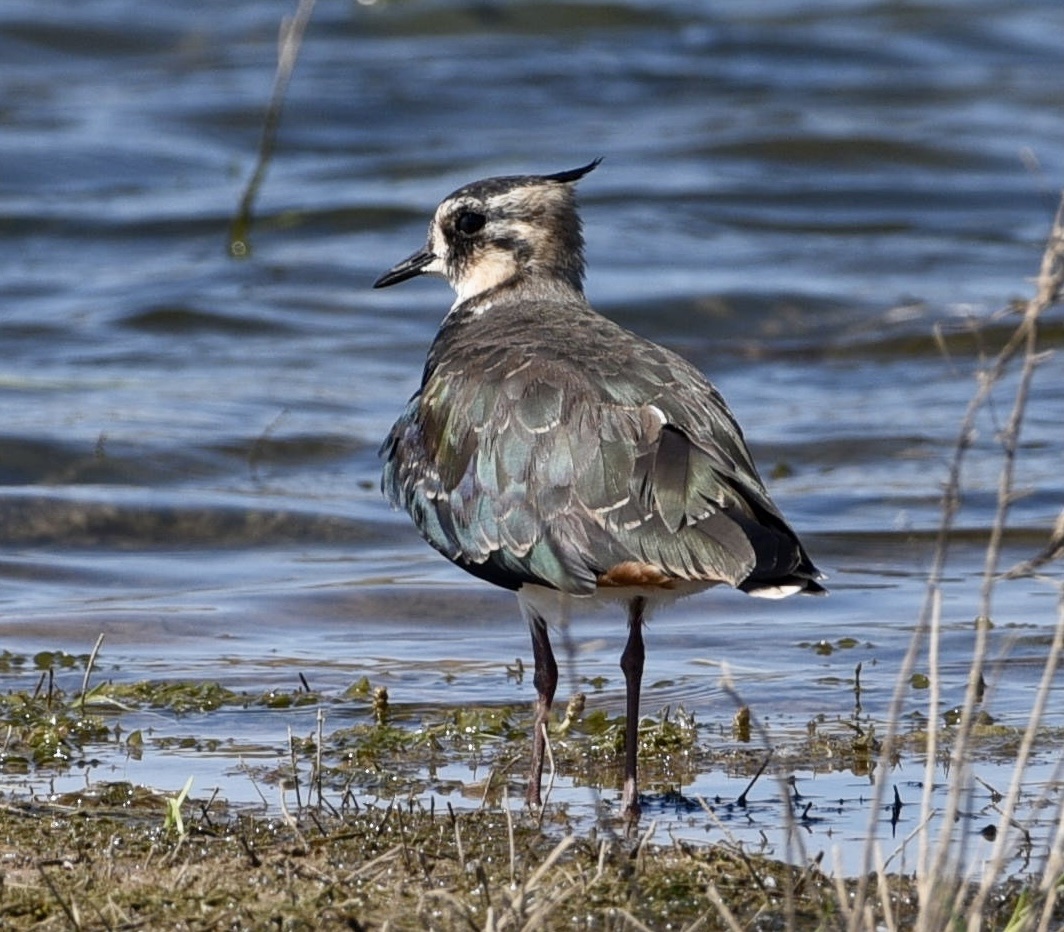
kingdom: Animalia
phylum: Chordata
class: Aves
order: Charadriiformes
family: Charadriidae
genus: Vanellus
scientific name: Vanellus vanellus
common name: Northern lapwing
